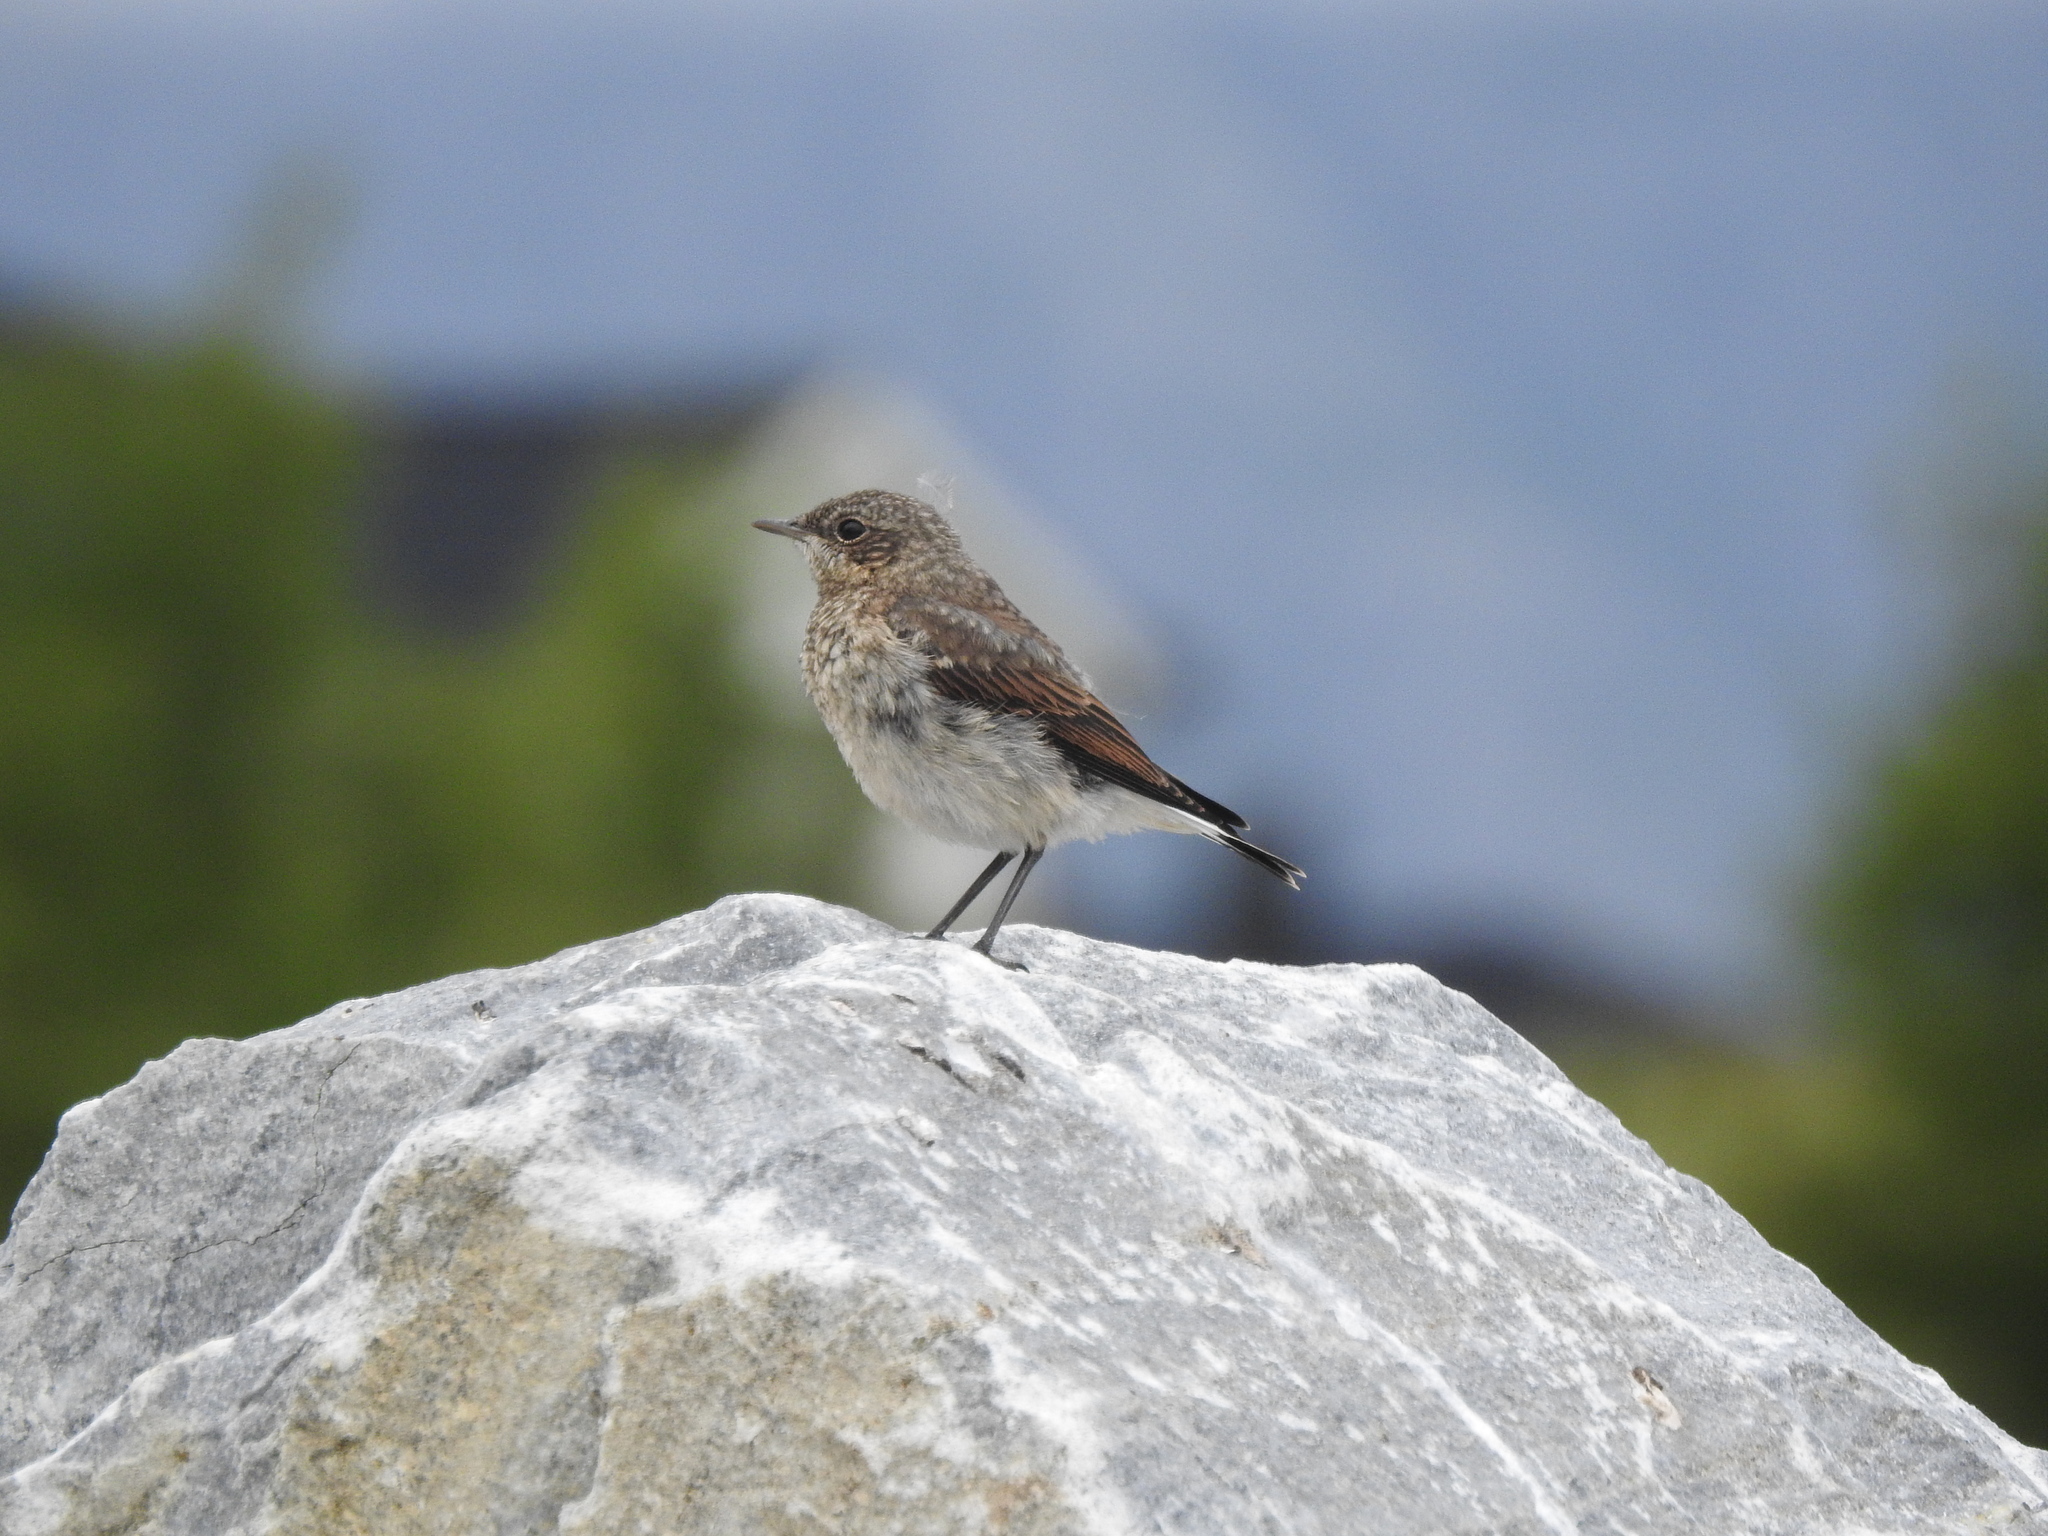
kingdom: Animalia
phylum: Chordata
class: Aves
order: Passeriformes
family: Muscicapidae
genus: Oenanthe
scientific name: Oenanthe oenanthe
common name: Northern wheatear
